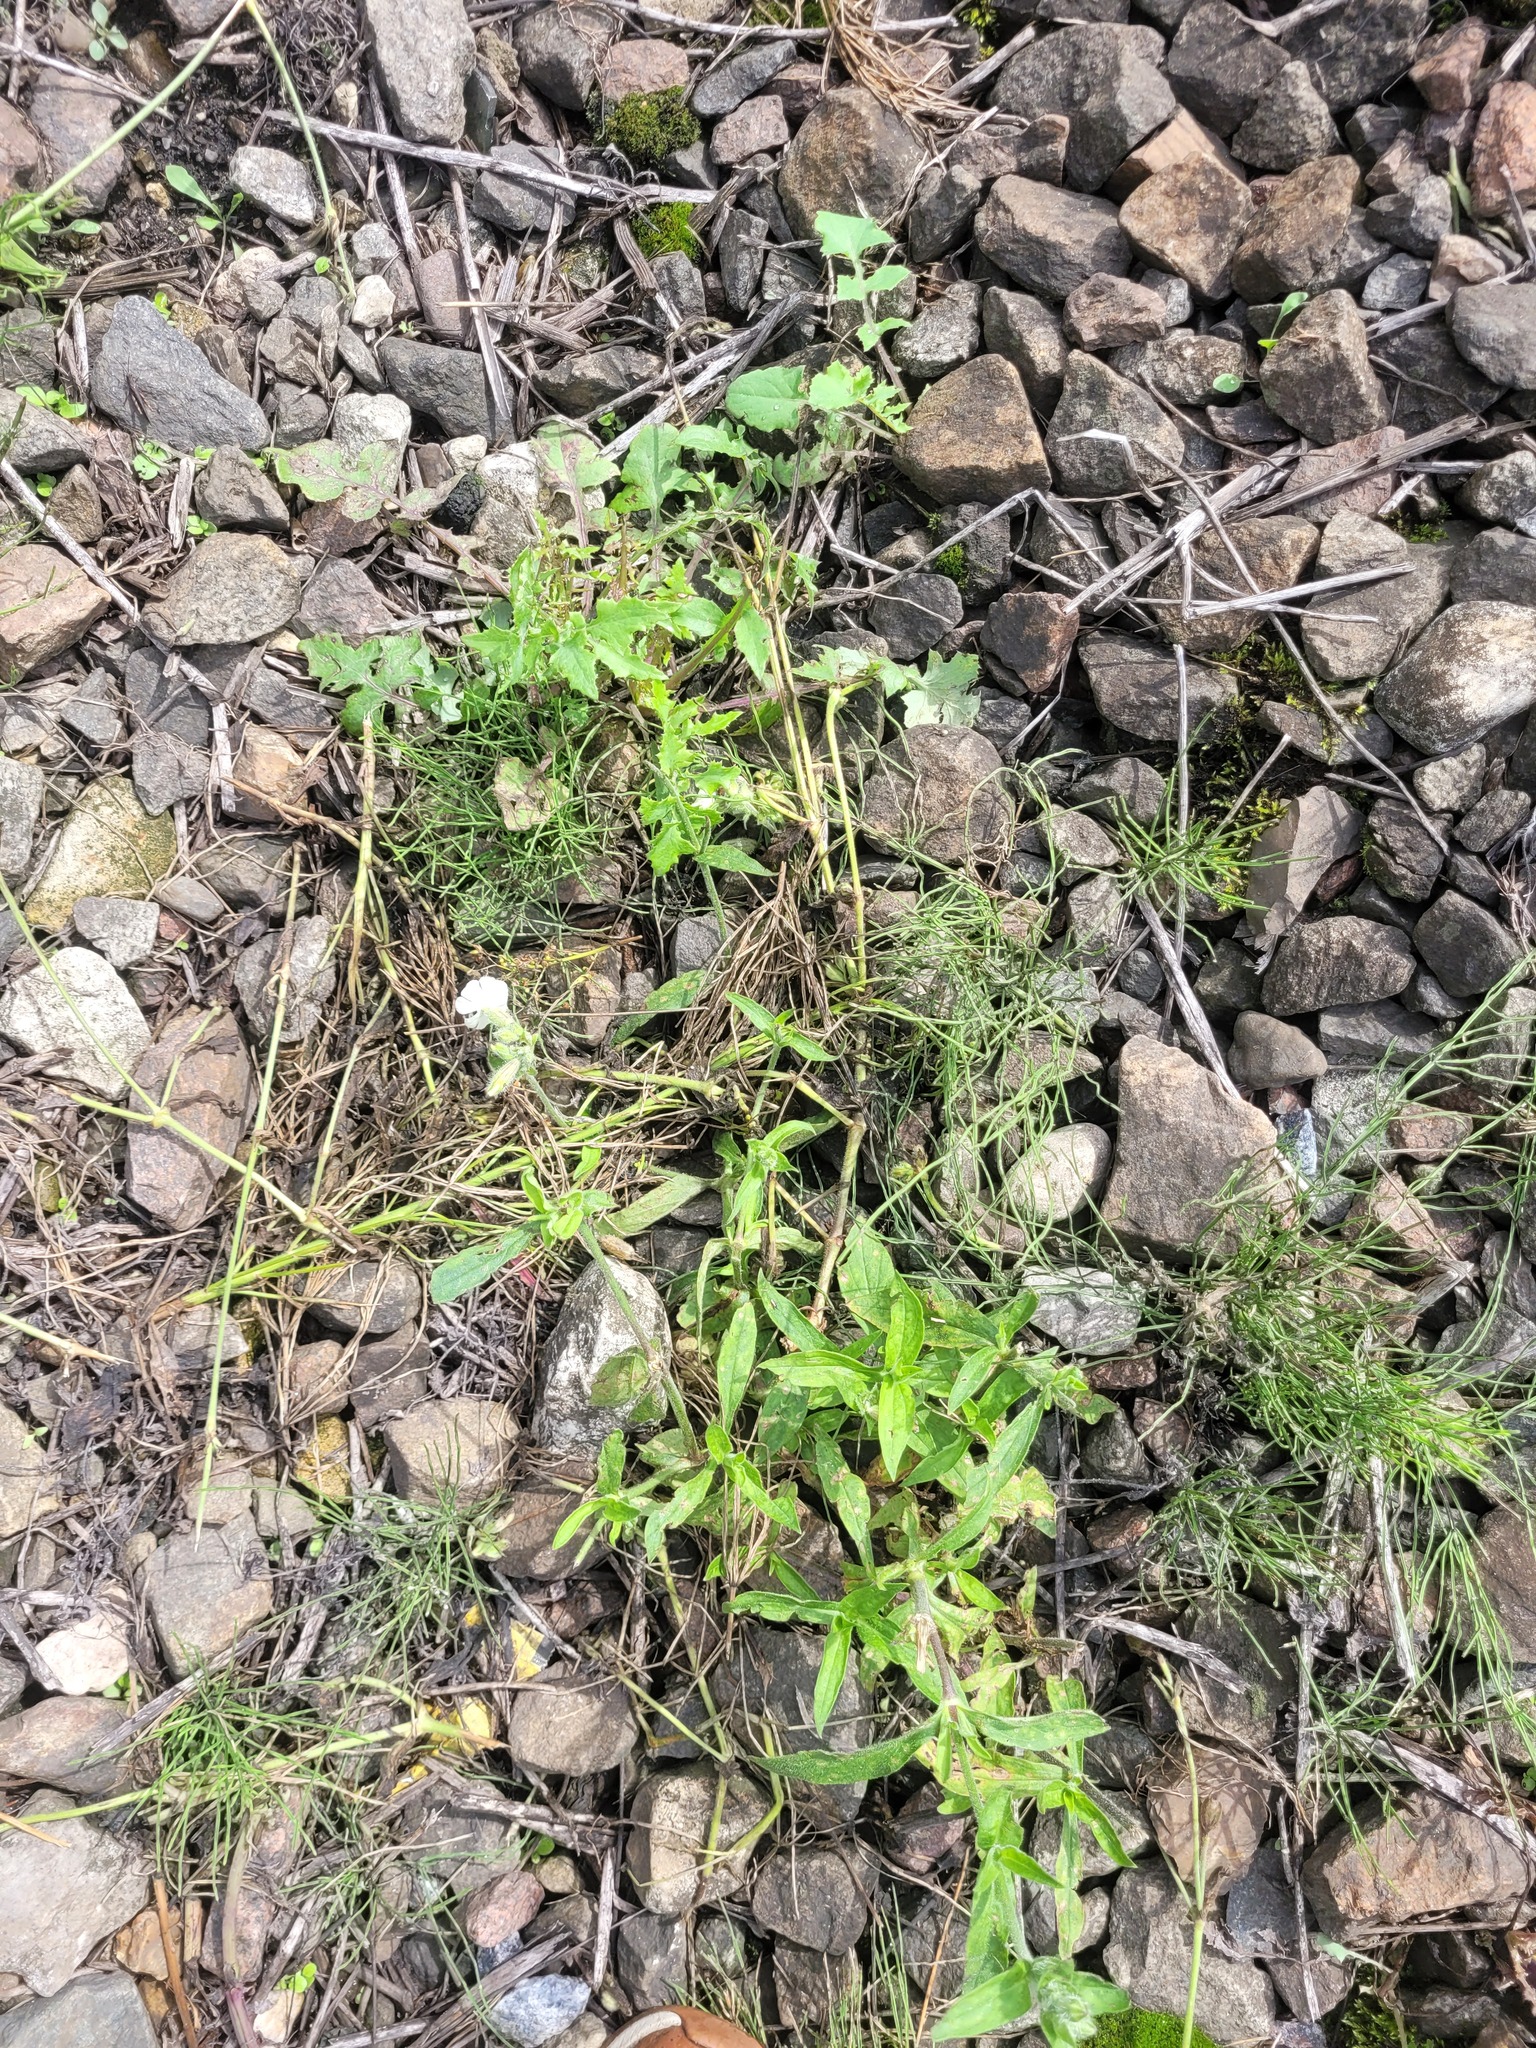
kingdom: Plantae
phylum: Tracheophyta
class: Magnoliopsida
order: Caryophyllales
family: Caryophyllaceae
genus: Silene
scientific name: Silene latifolia
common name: White campion
